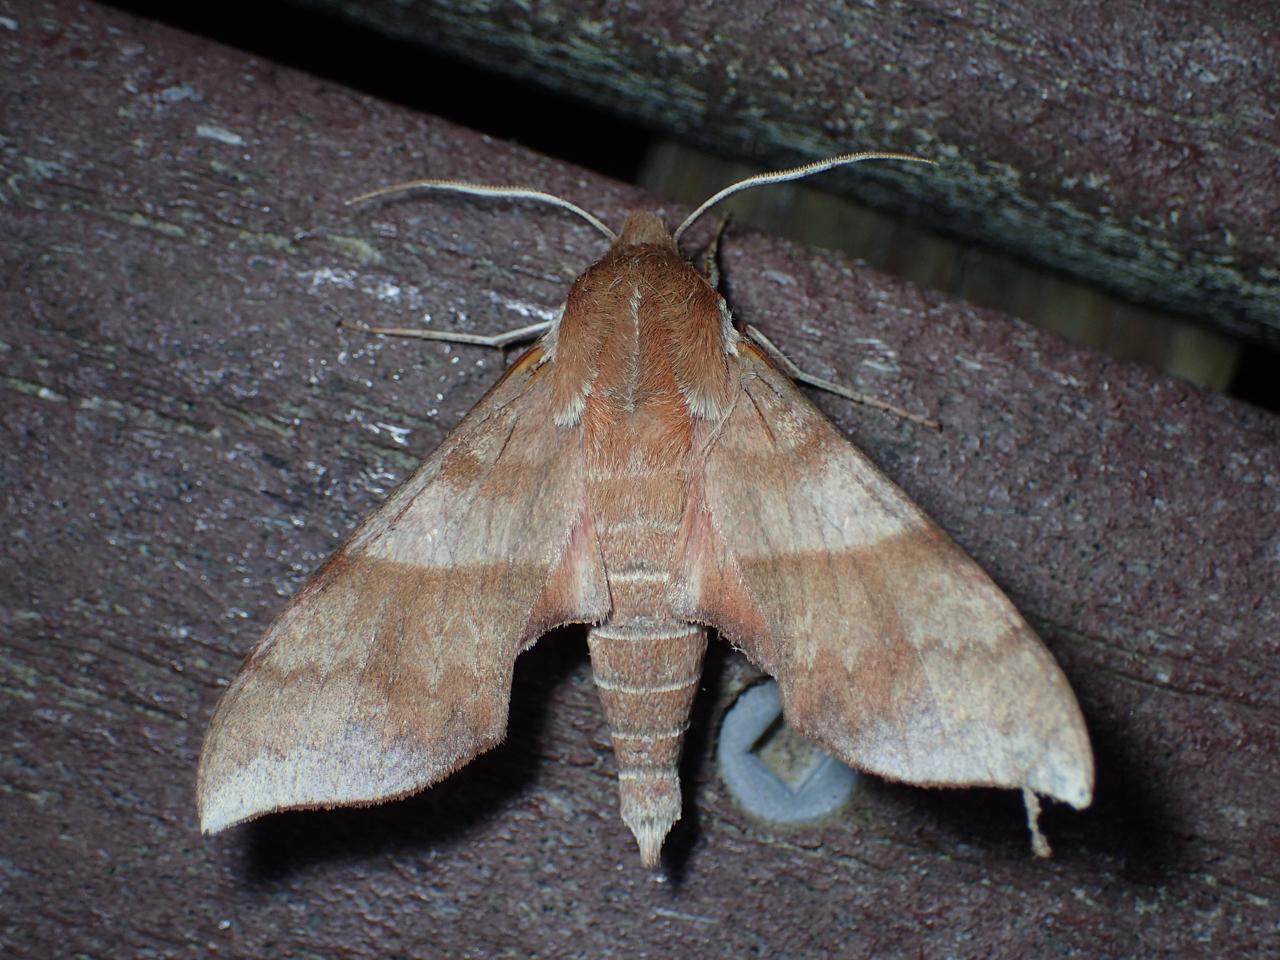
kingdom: Animalia
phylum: Arthropoda
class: Insecta
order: Lepidoptera
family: Sphingidae
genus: Darapsa
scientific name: Darapsa choerilus
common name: Azalea sphinx
